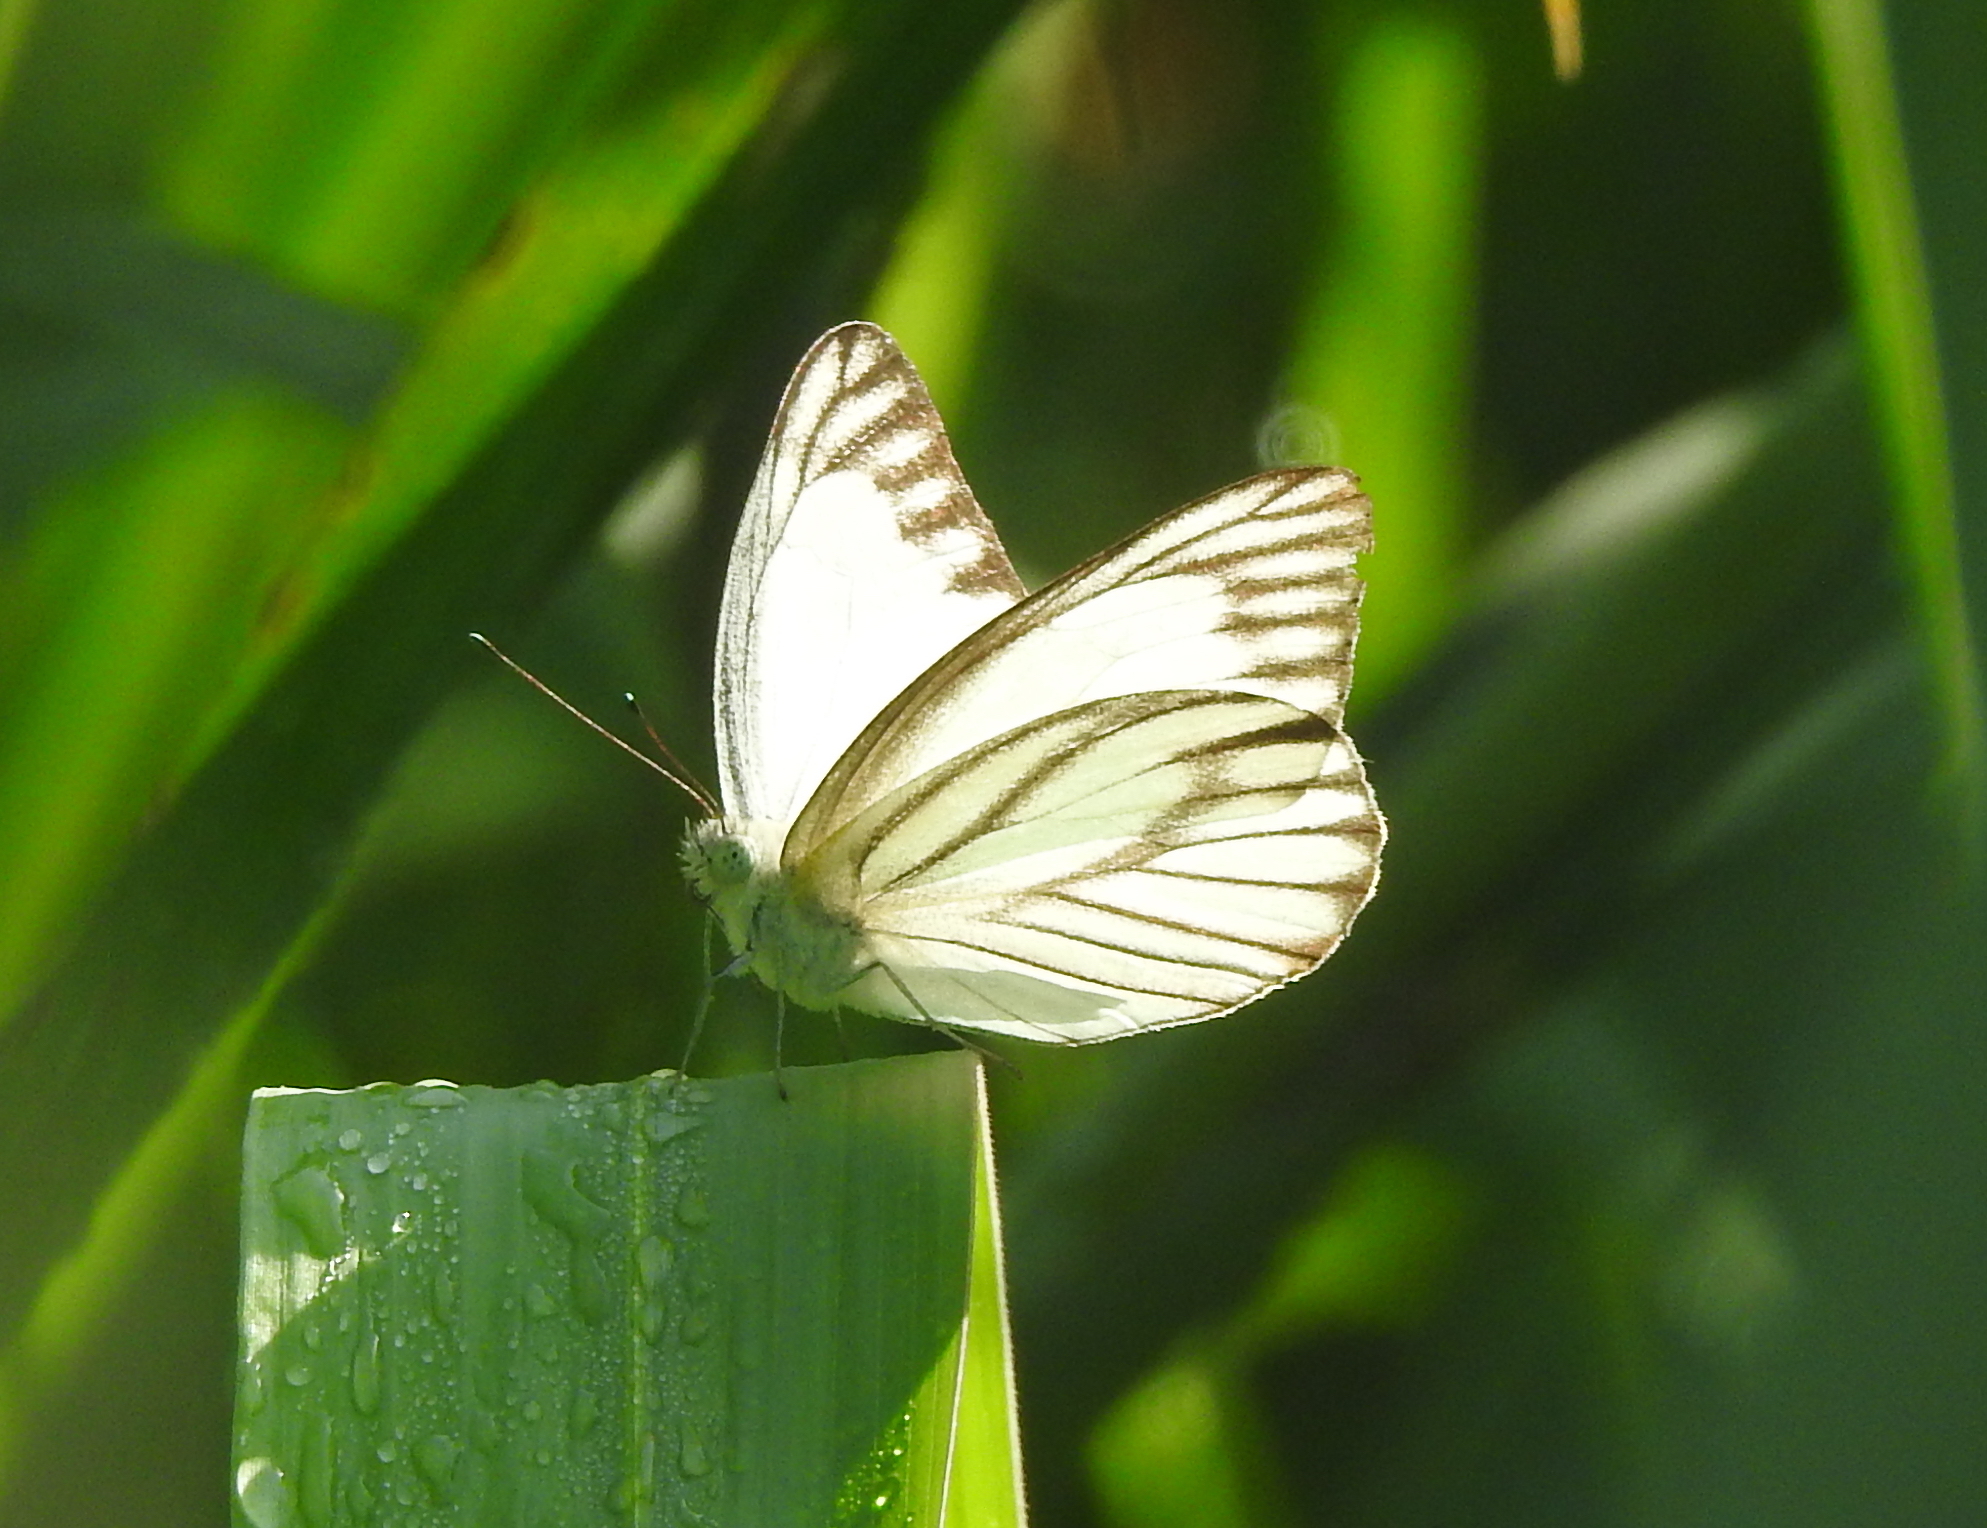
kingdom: Animalia
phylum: Arthropoda
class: Insecta
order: Lepidoptera
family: Pieridae
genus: Appias
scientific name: Appias libythea
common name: Striped albatross
